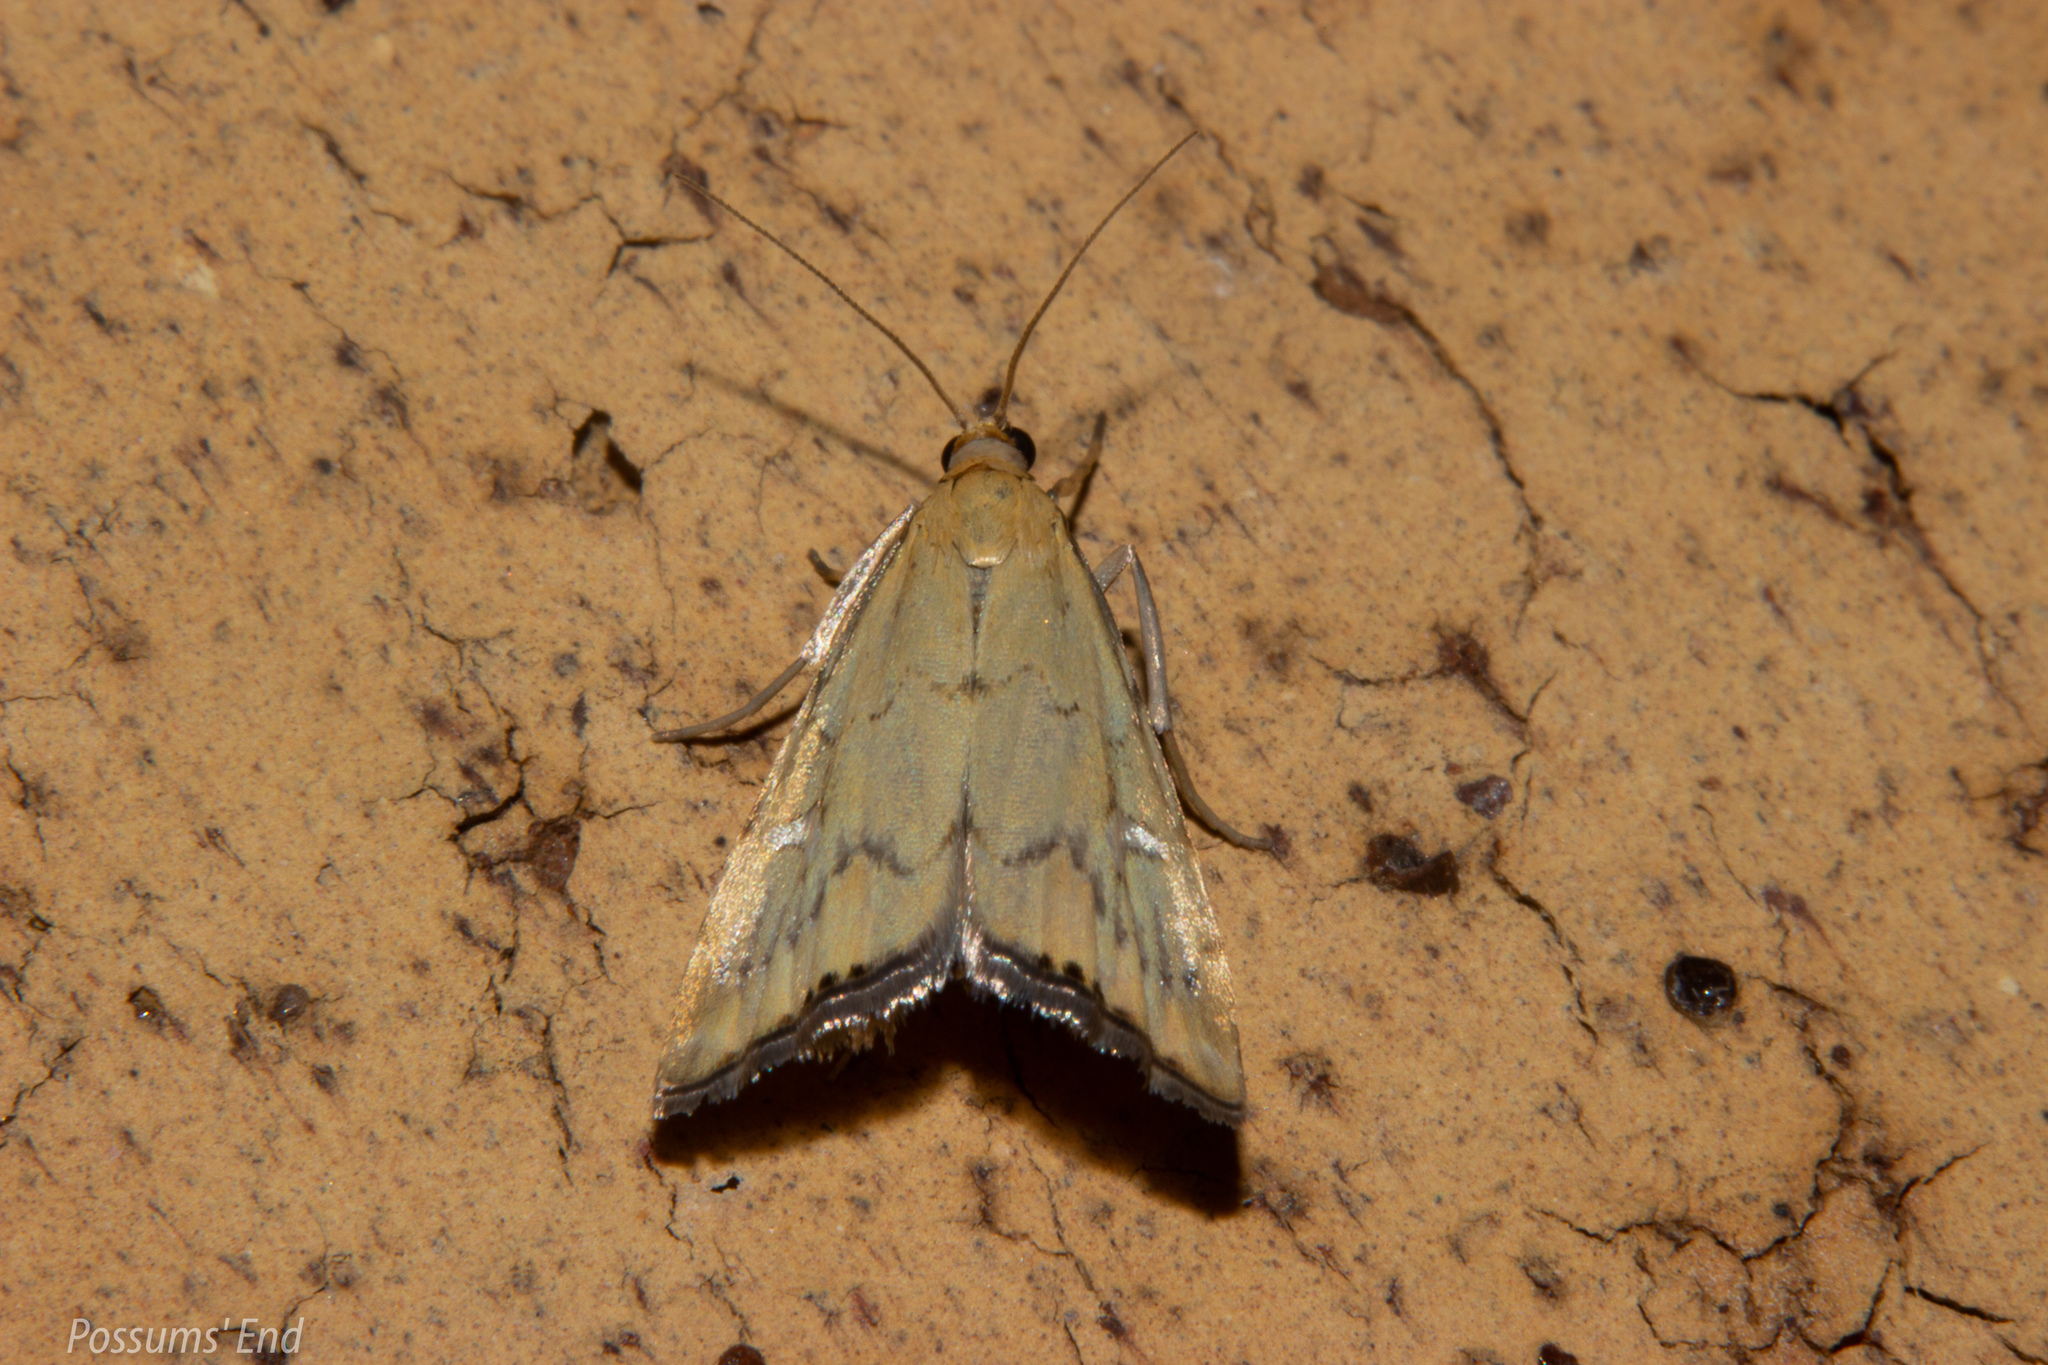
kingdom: Animalia
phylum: Arthropoda
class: Insecta
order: Lepidoptera
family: Crambidae
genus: Glaucocharis
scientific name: Glaucocharis lepidella
